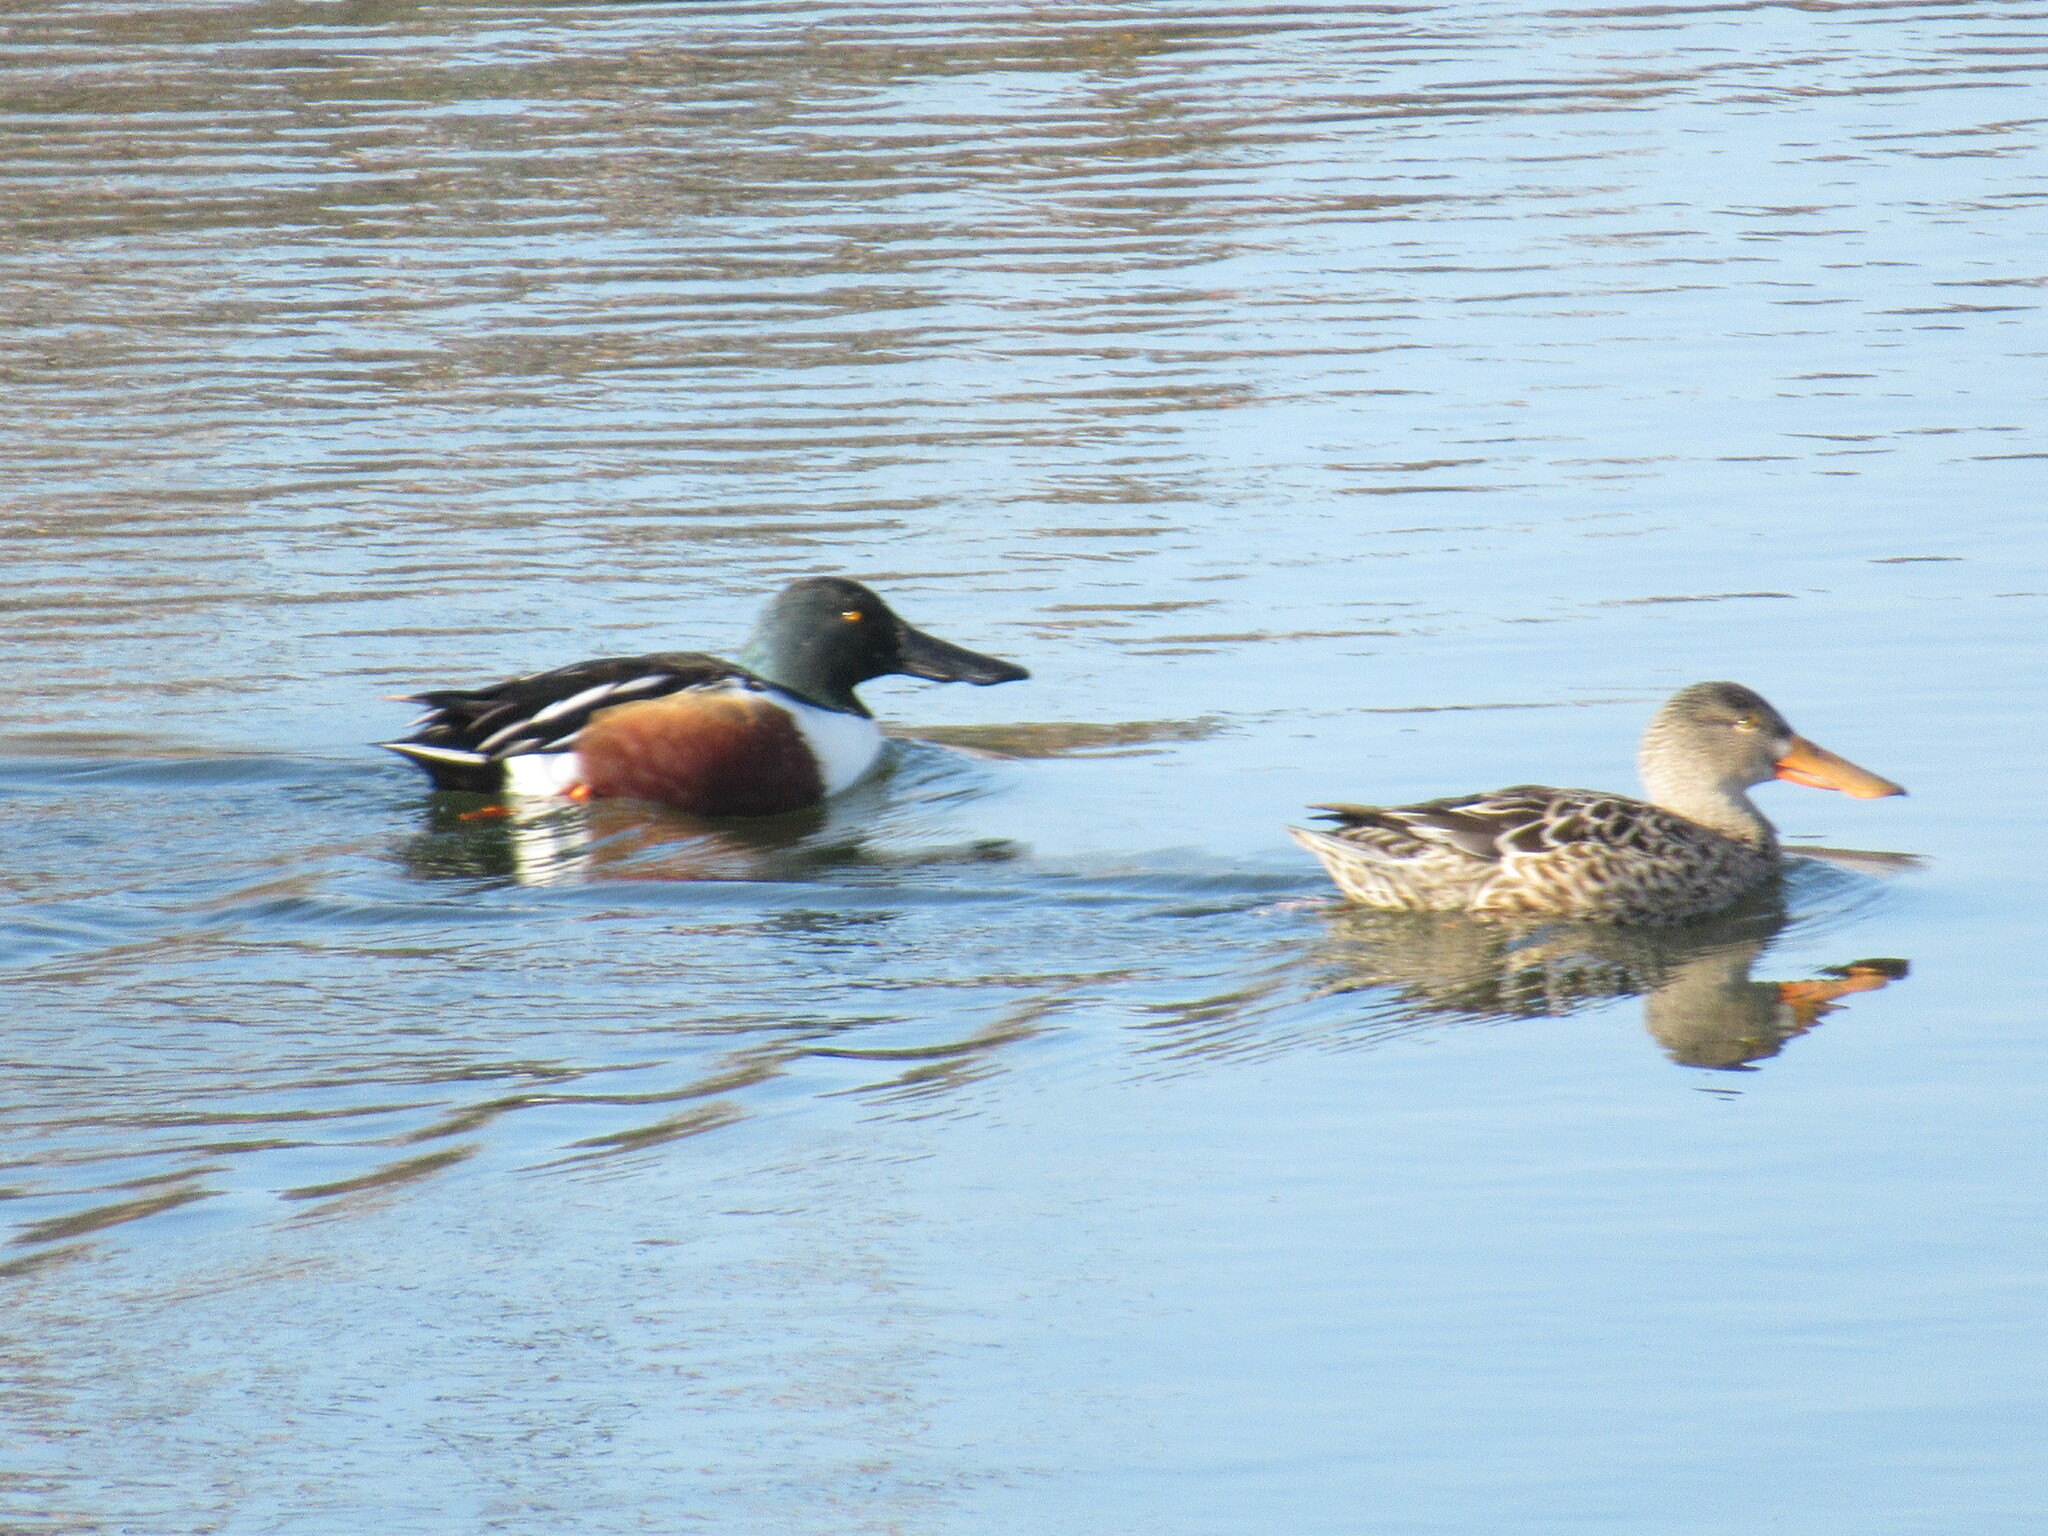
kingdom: Animalia
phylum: Chordata
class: Aves
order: Anseriformes
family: Anatidae
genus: Spatula
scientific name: Spatula clypeata
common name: Northern shoveler
